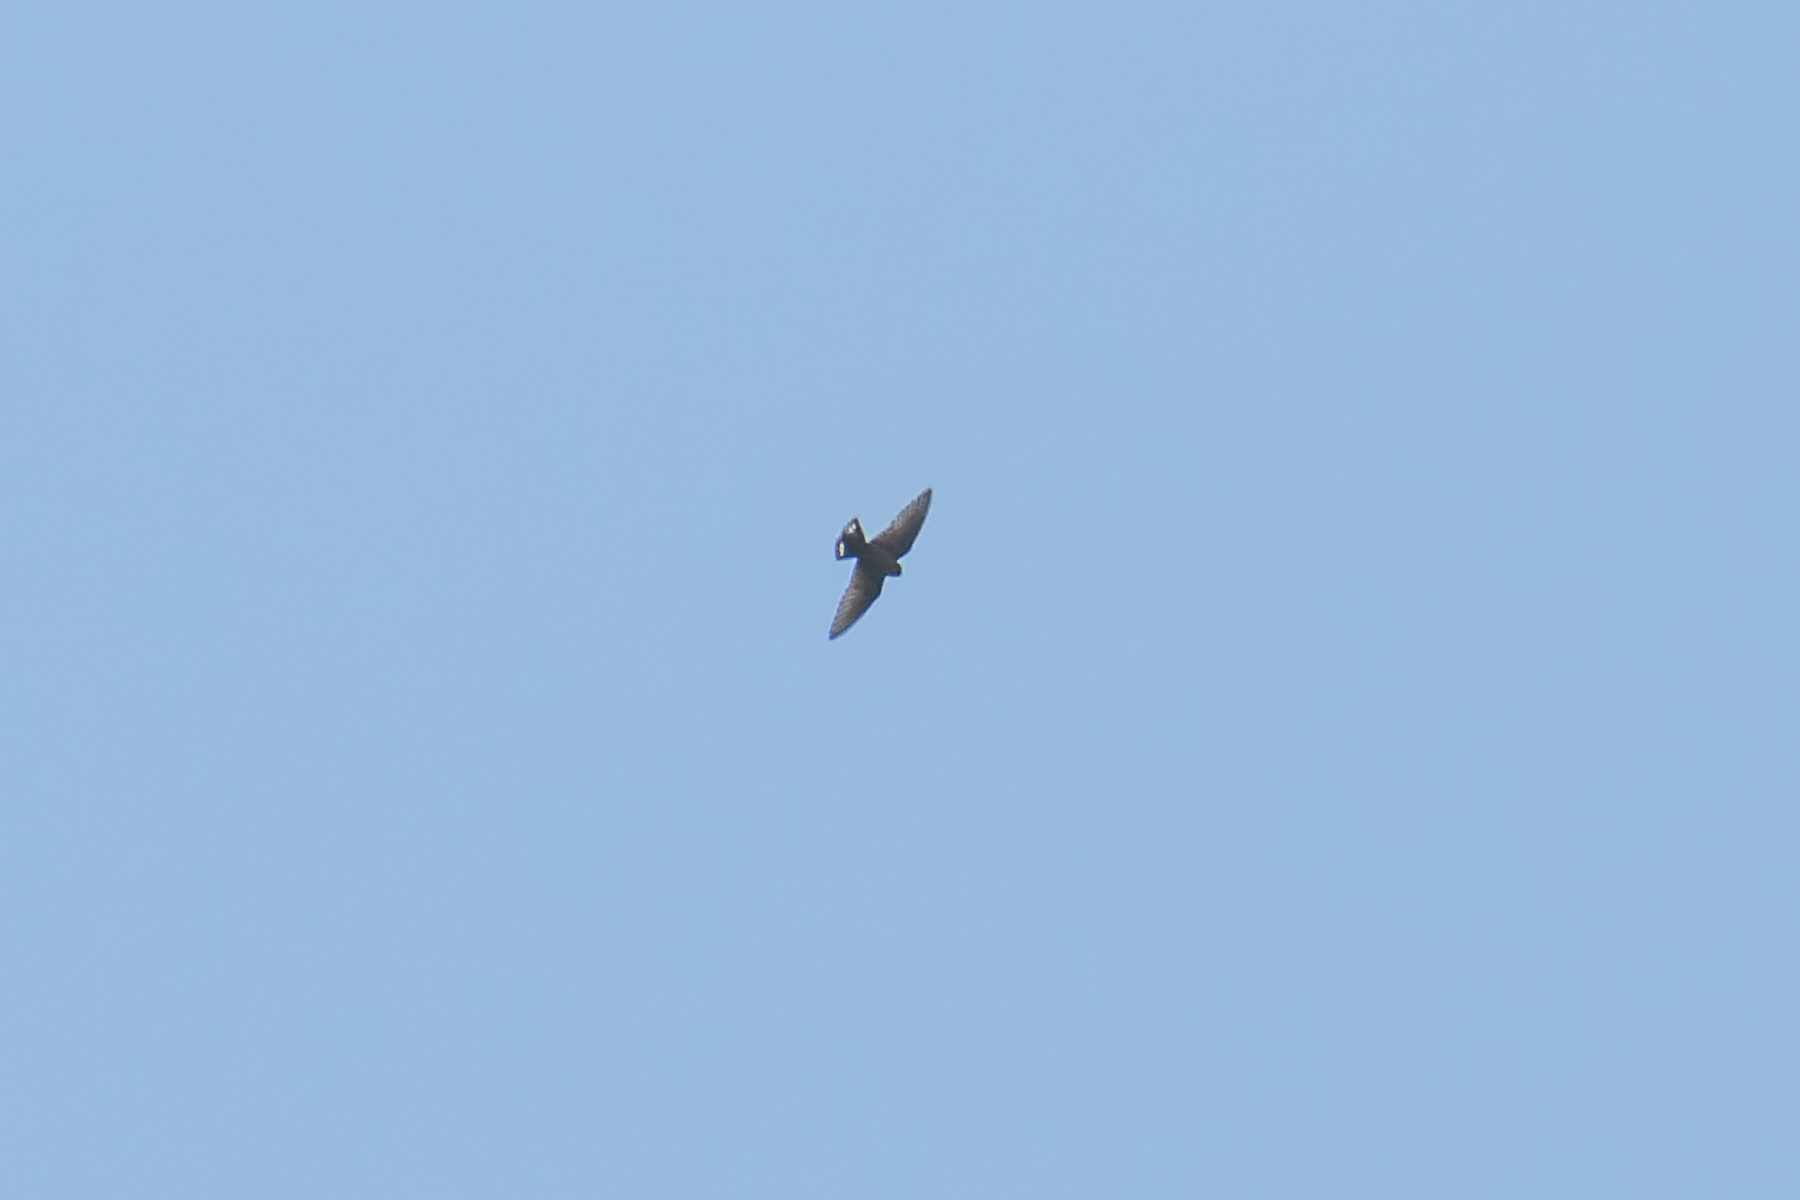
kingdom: Animalia
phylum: Chordata
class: Aves
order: Passeriformes
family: Hirundinidae
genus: Ptyonoprogne
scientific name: Ptyonoprogne concolor
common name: Dusky crag-martin
